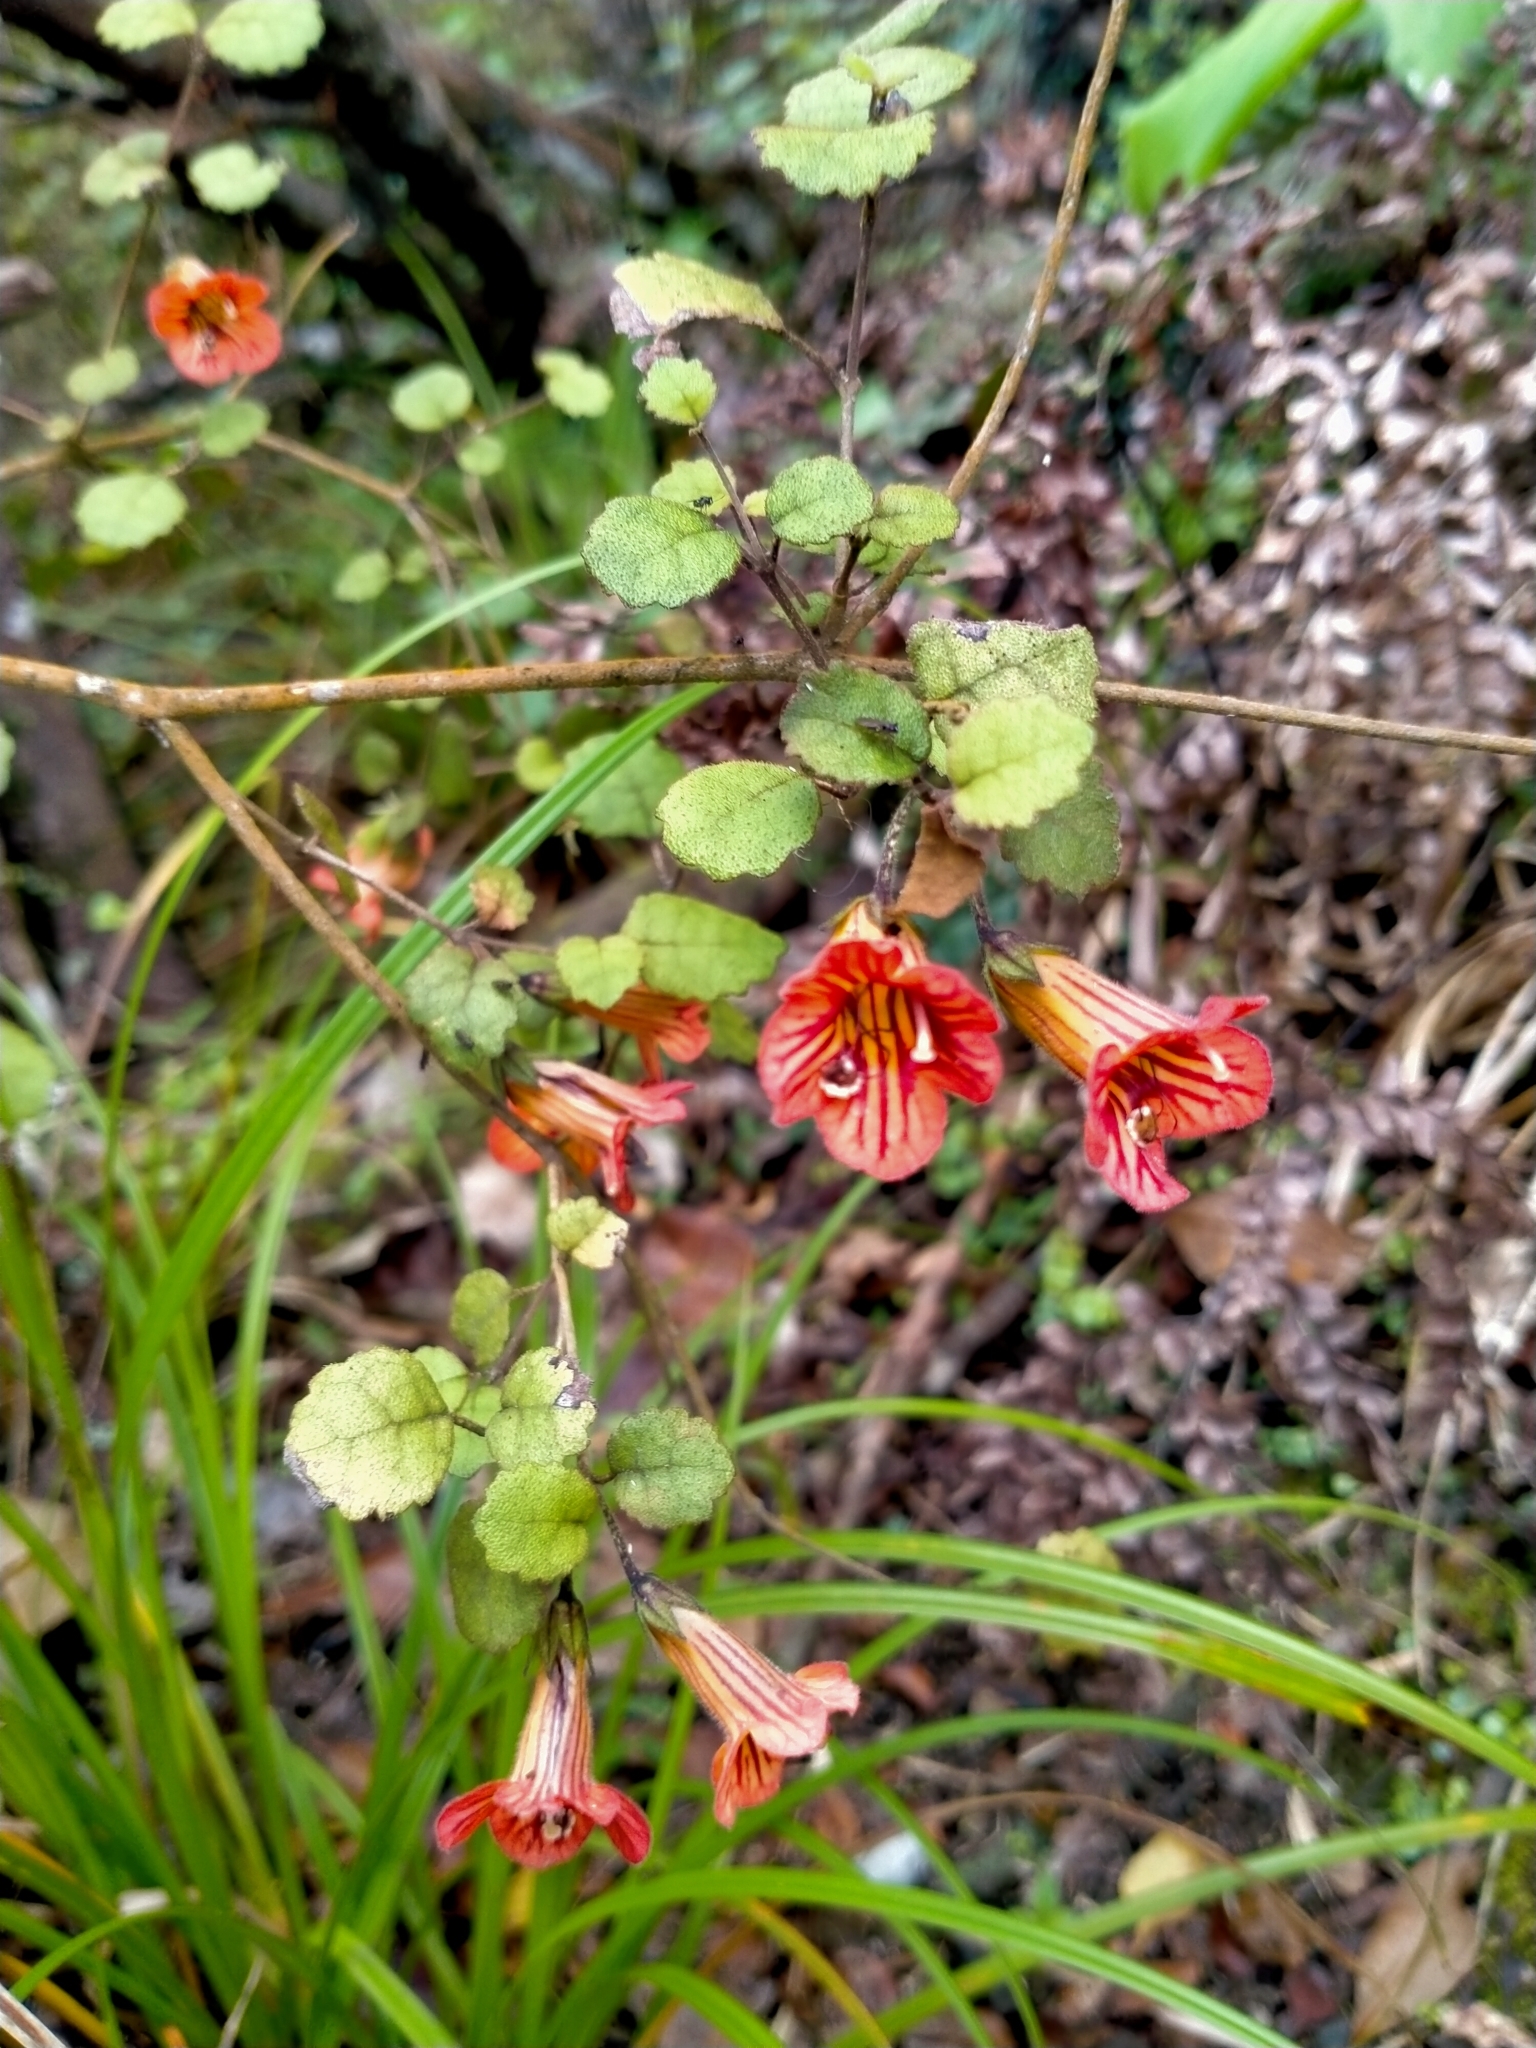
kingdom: Plantae
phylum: Tracheophyta
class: Magnoliopsida
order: Lamiales
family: Gesneriaceae
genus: Rhabdothamnus
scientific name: Rhabdothamnus solandri
